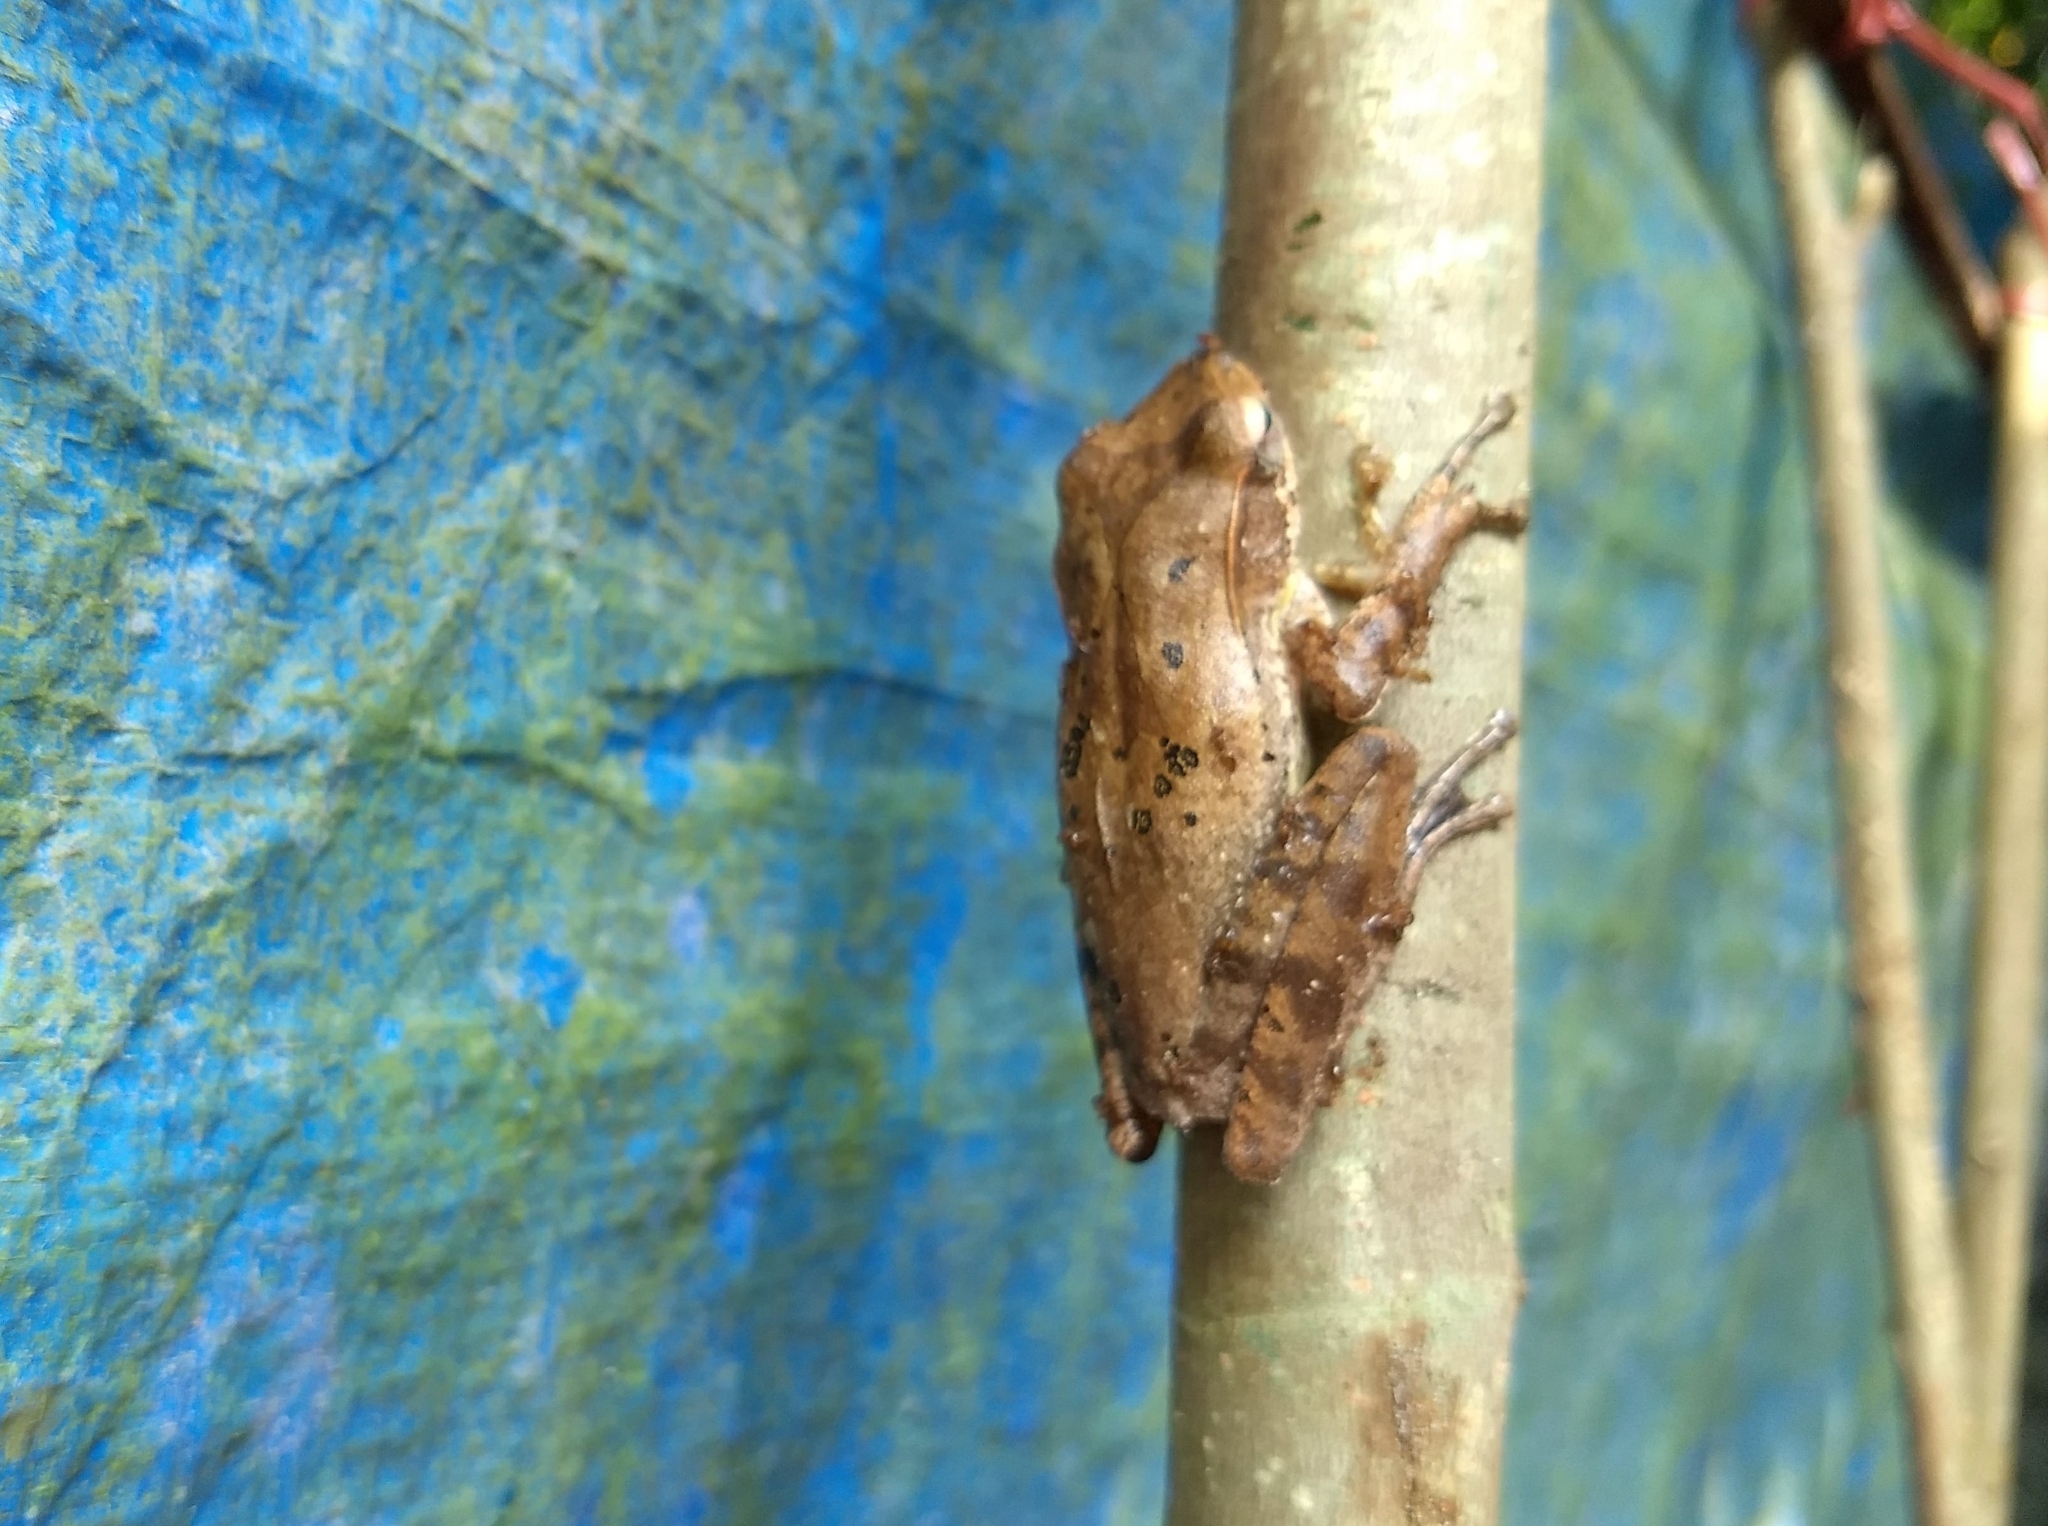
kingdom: Animalia
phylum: Chordata
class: Amphibia
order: Anura
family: Rhacophoridae
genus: Polypedates
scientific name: Polypedates occidentalis
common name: Charpa tree frog
